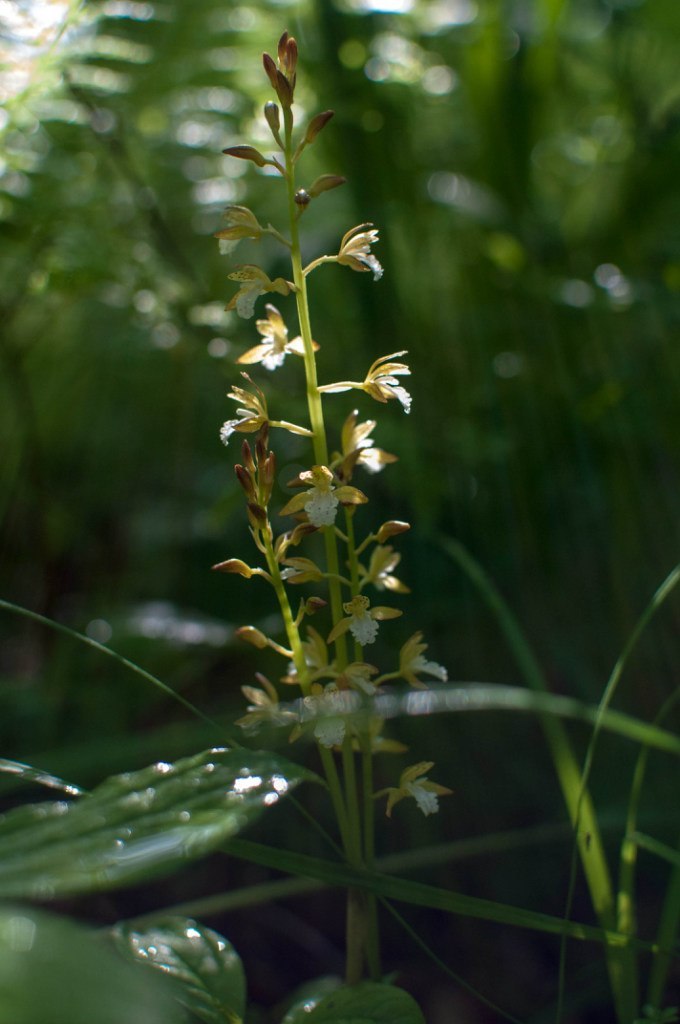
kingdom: Plantae
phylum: Tracheophyta
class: Liliopsida
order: Asparagales
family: Orchidaceae
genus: Oreorchis
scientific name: Oreorchis patens
